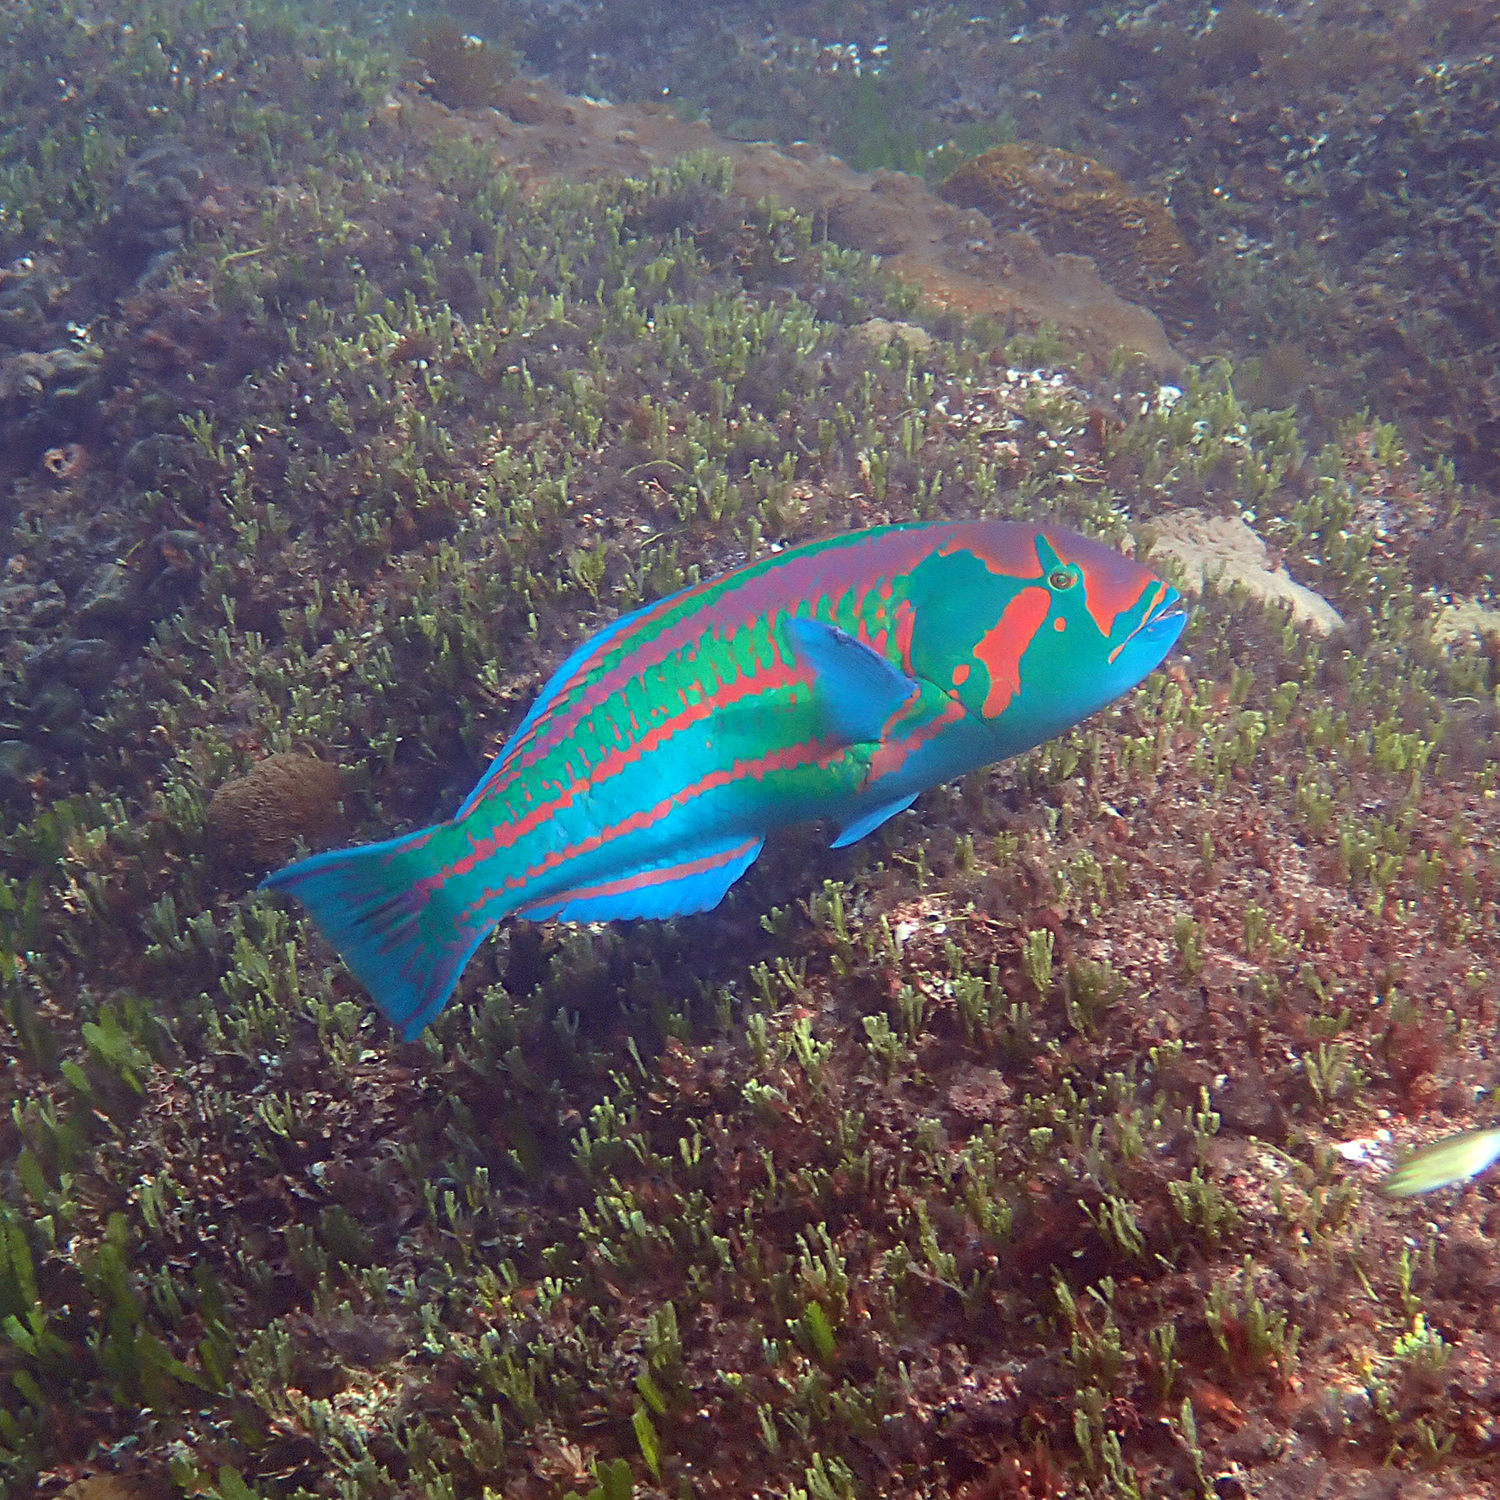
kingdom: Animalia
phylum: Chordata
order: Perciformes
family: Labridae
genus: Thalassoma
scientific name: Thalassoma purpureum
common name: Parrotfish
